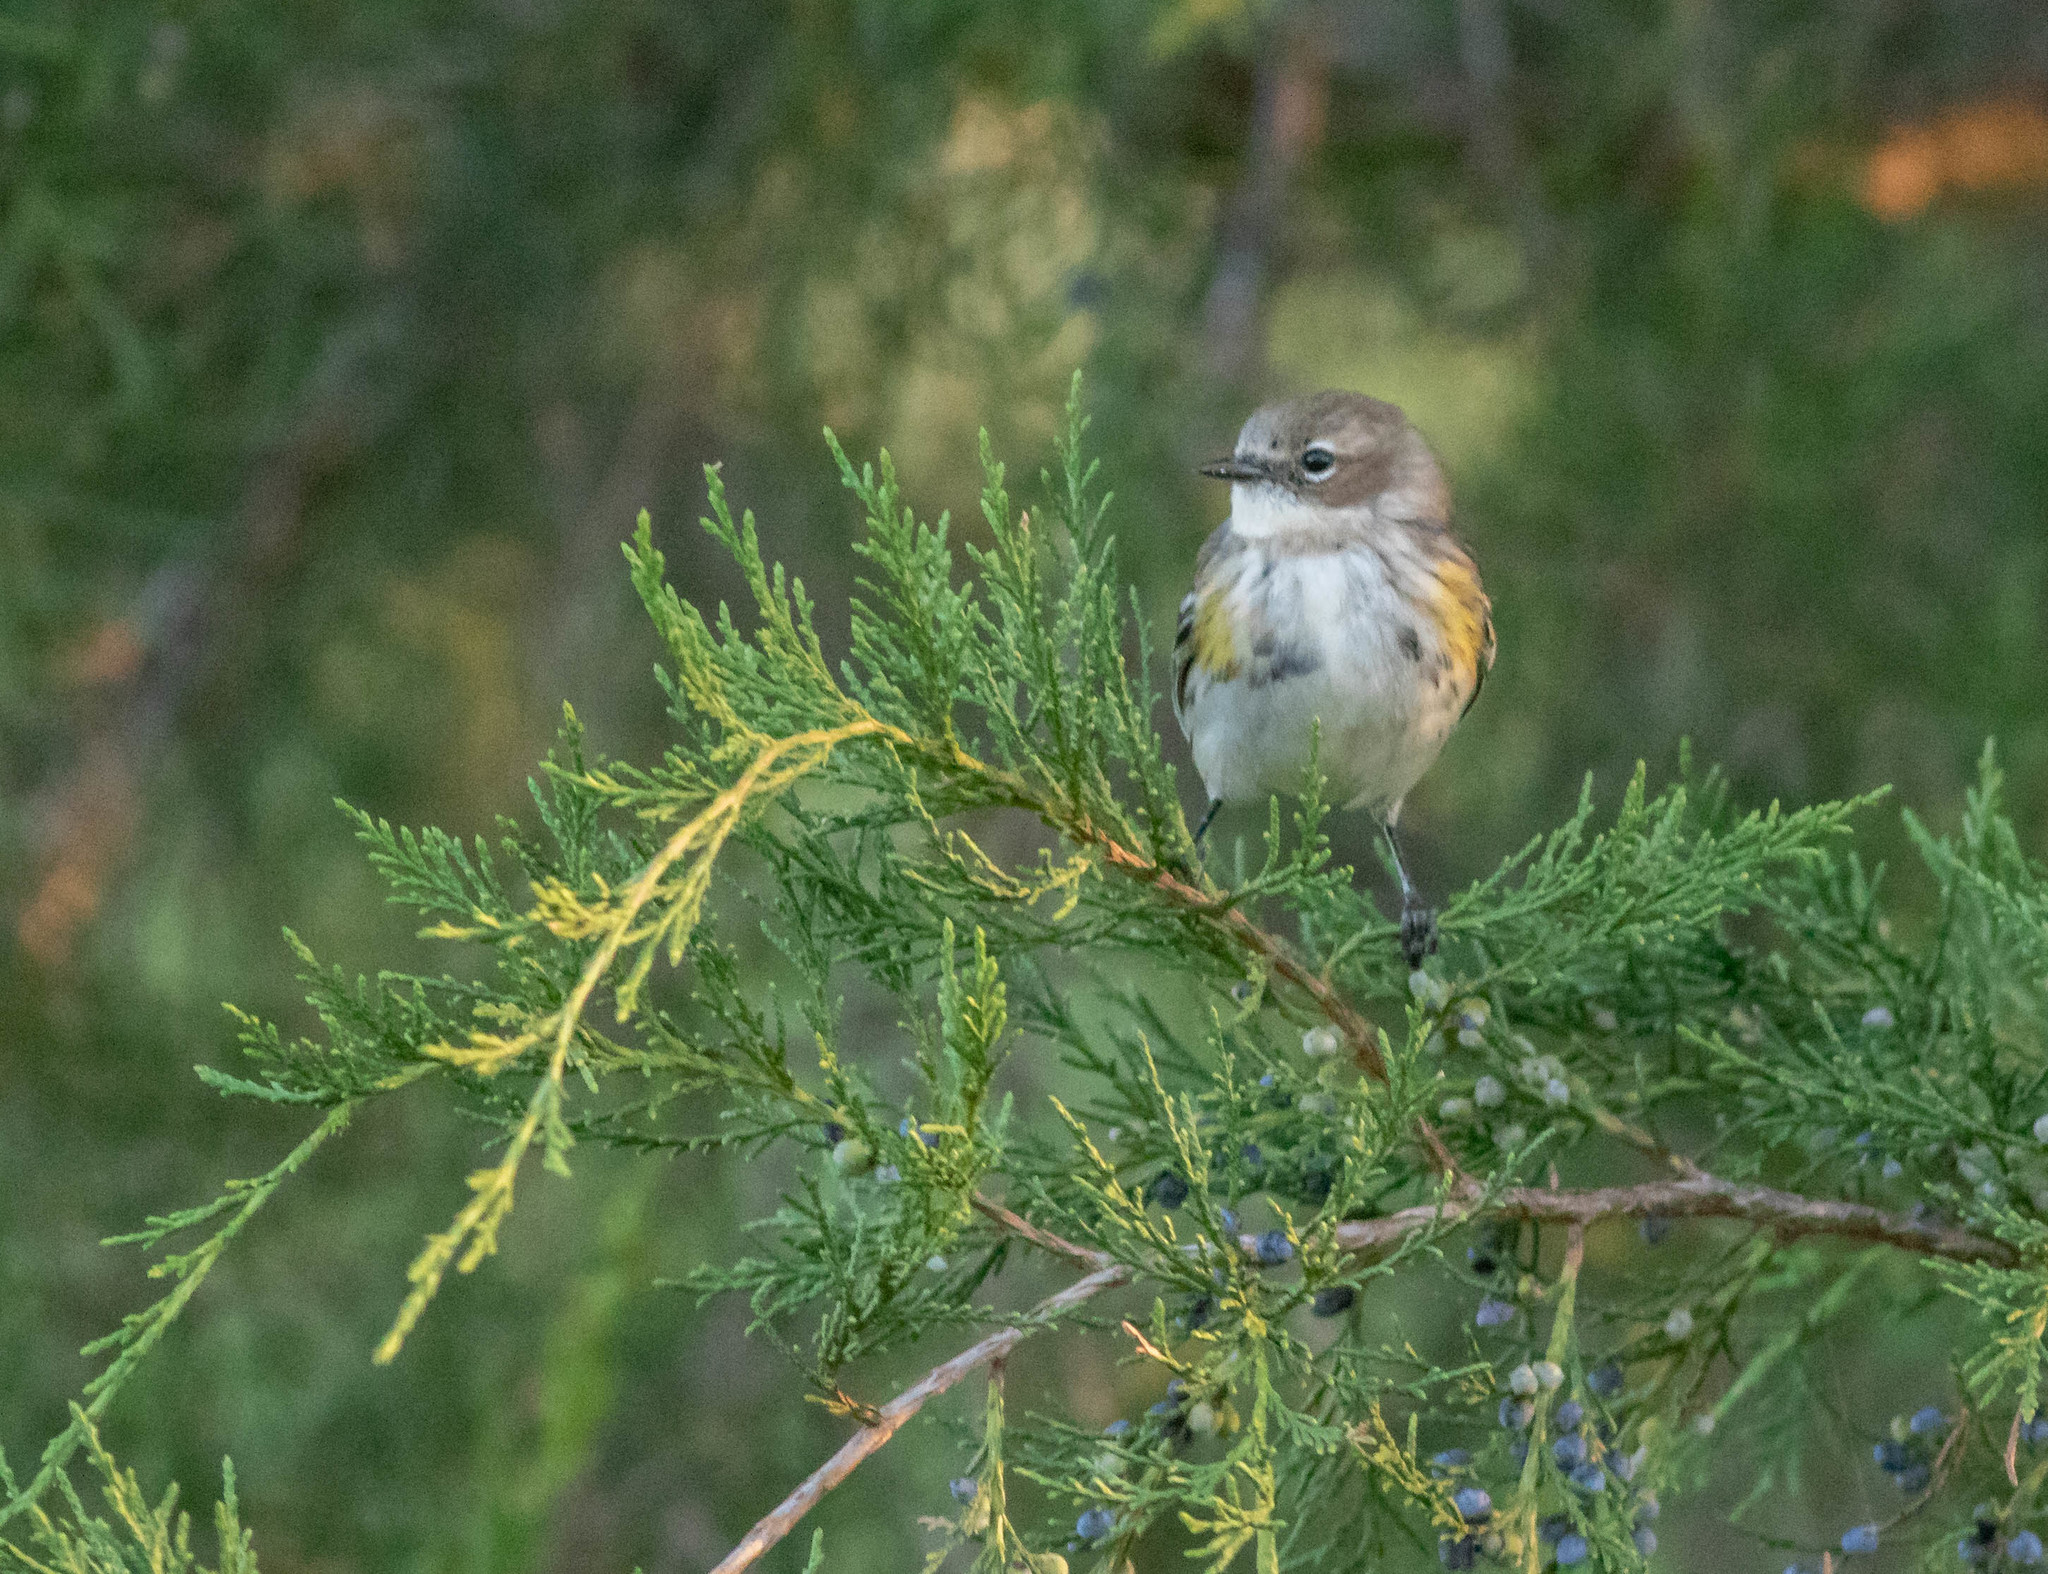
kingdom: Animalia
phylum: Chordata
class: Aves
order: Passeriformes
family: Parulidae
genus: Setophaga
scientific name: Setophaga coronata
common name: Myrtle warbler
